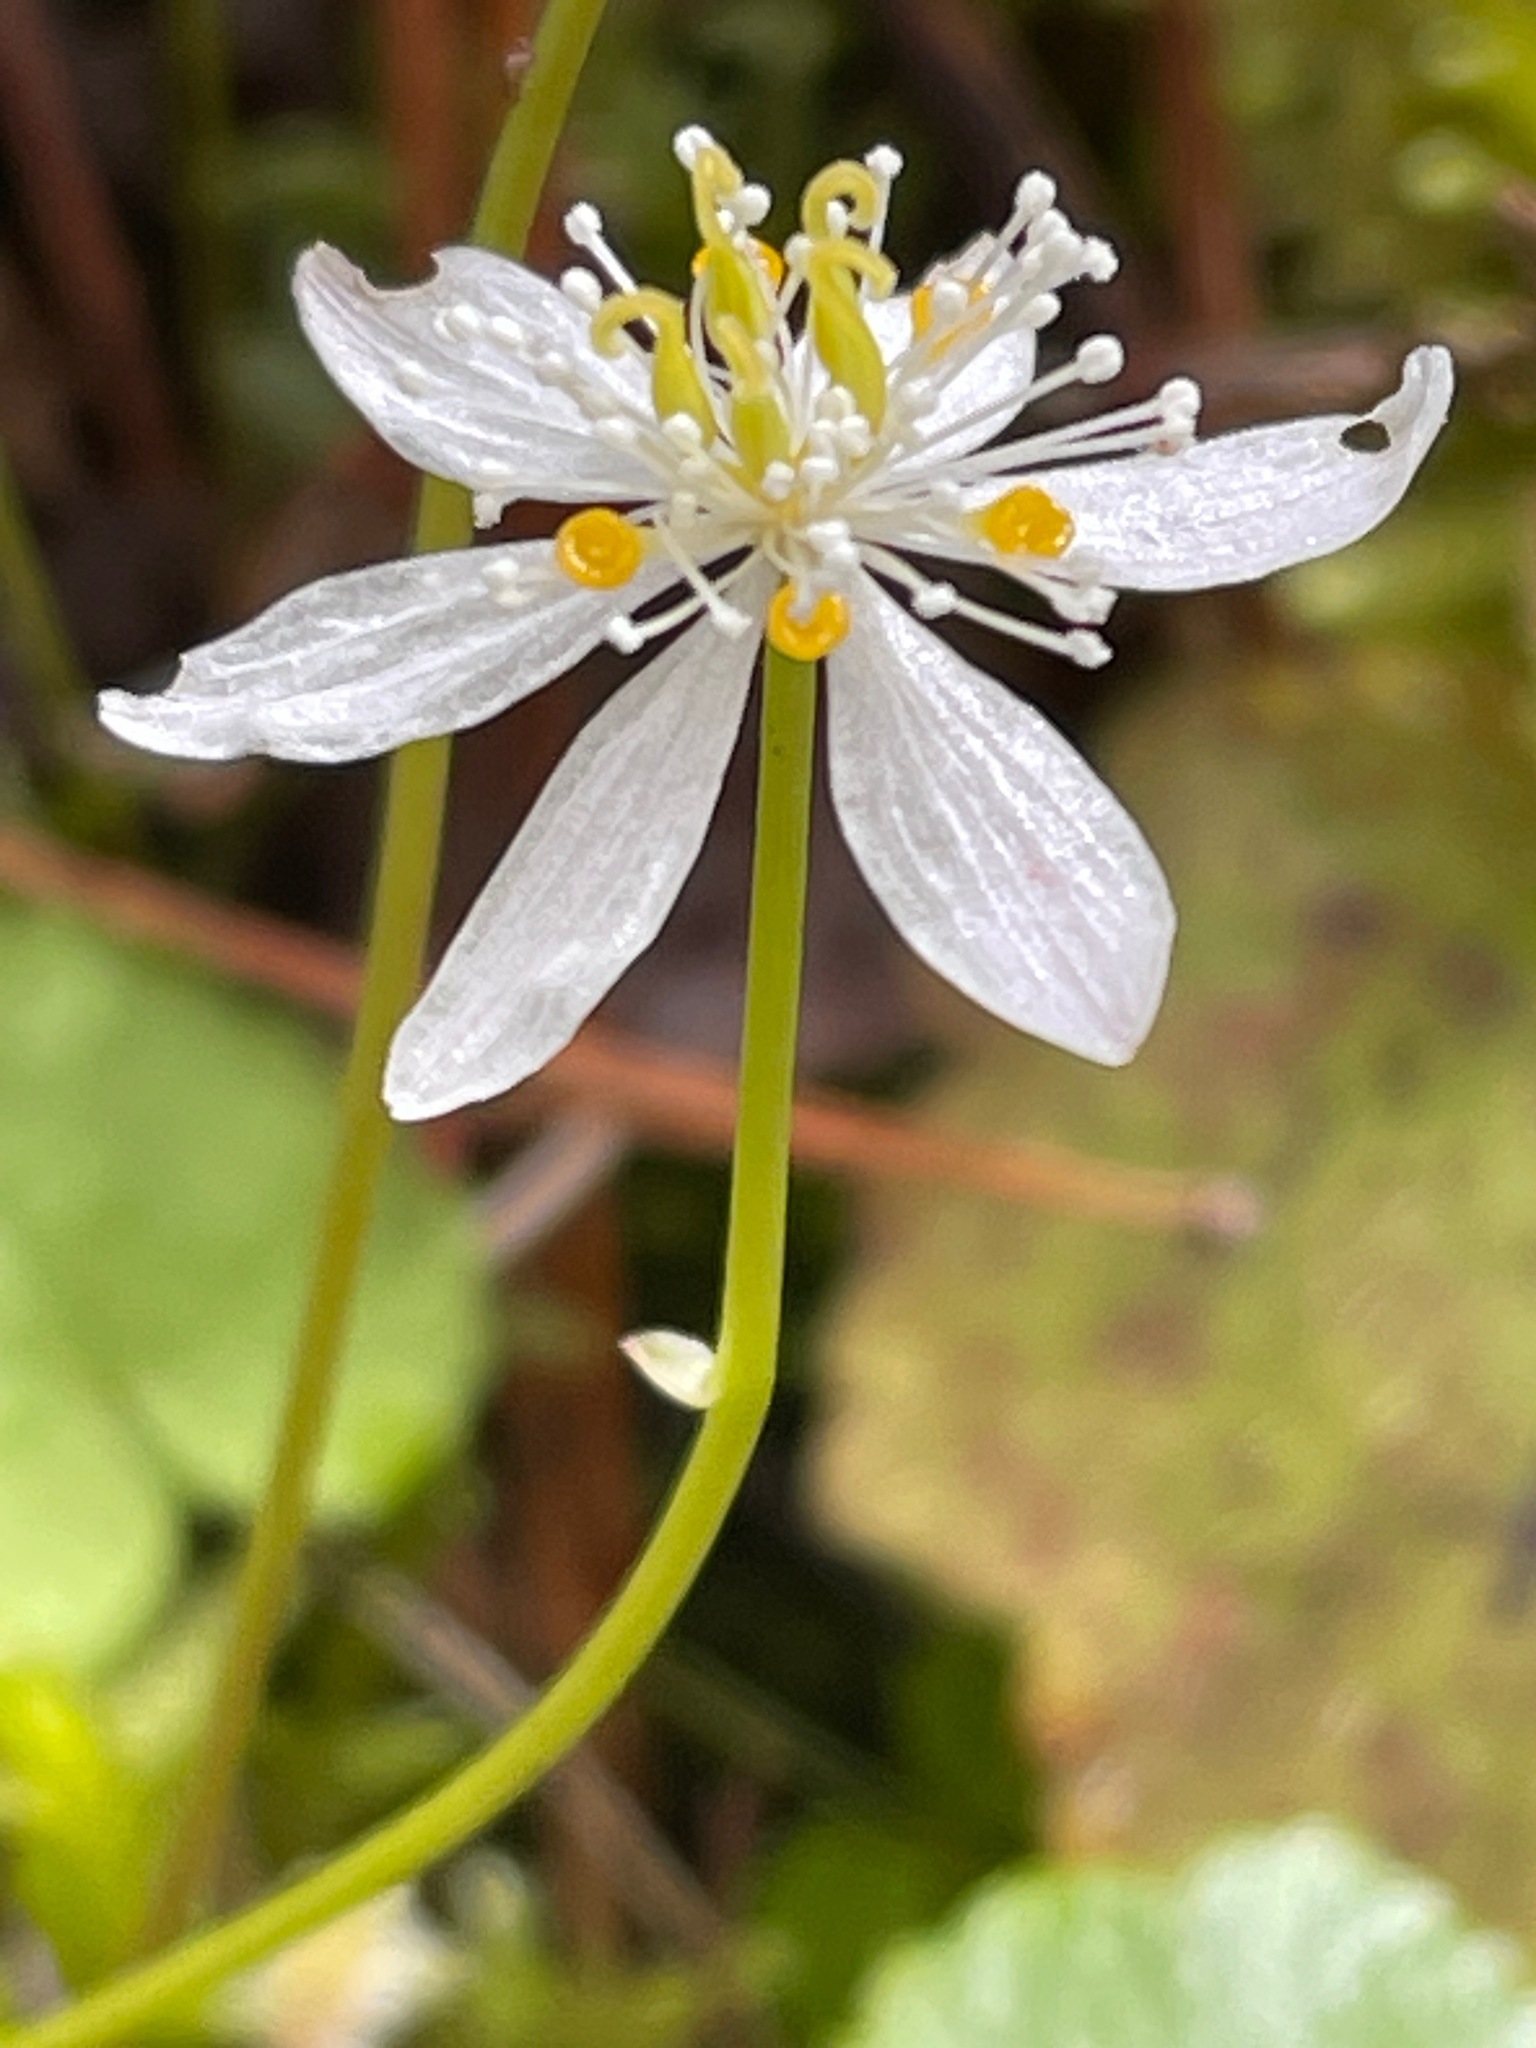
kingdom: Plantae
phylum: Tracheophyta
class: Magnoliopsida
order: Ranunculales
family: Ranunculaceae
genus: Coptis
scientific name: Coptis trifolia
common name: Canker-root
